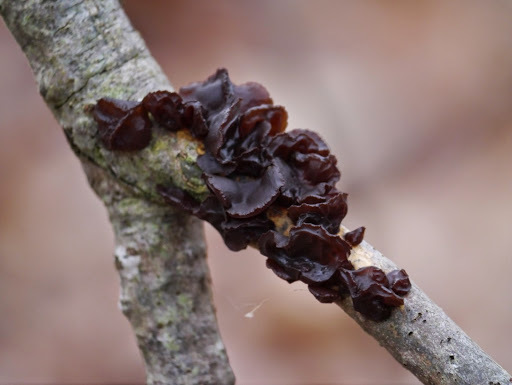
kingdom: Fungi
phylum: Basidiomycota
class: Agaricomycetes
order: Auriculariales
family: Auriculariaceae
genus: Exidia
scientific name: Exidia
